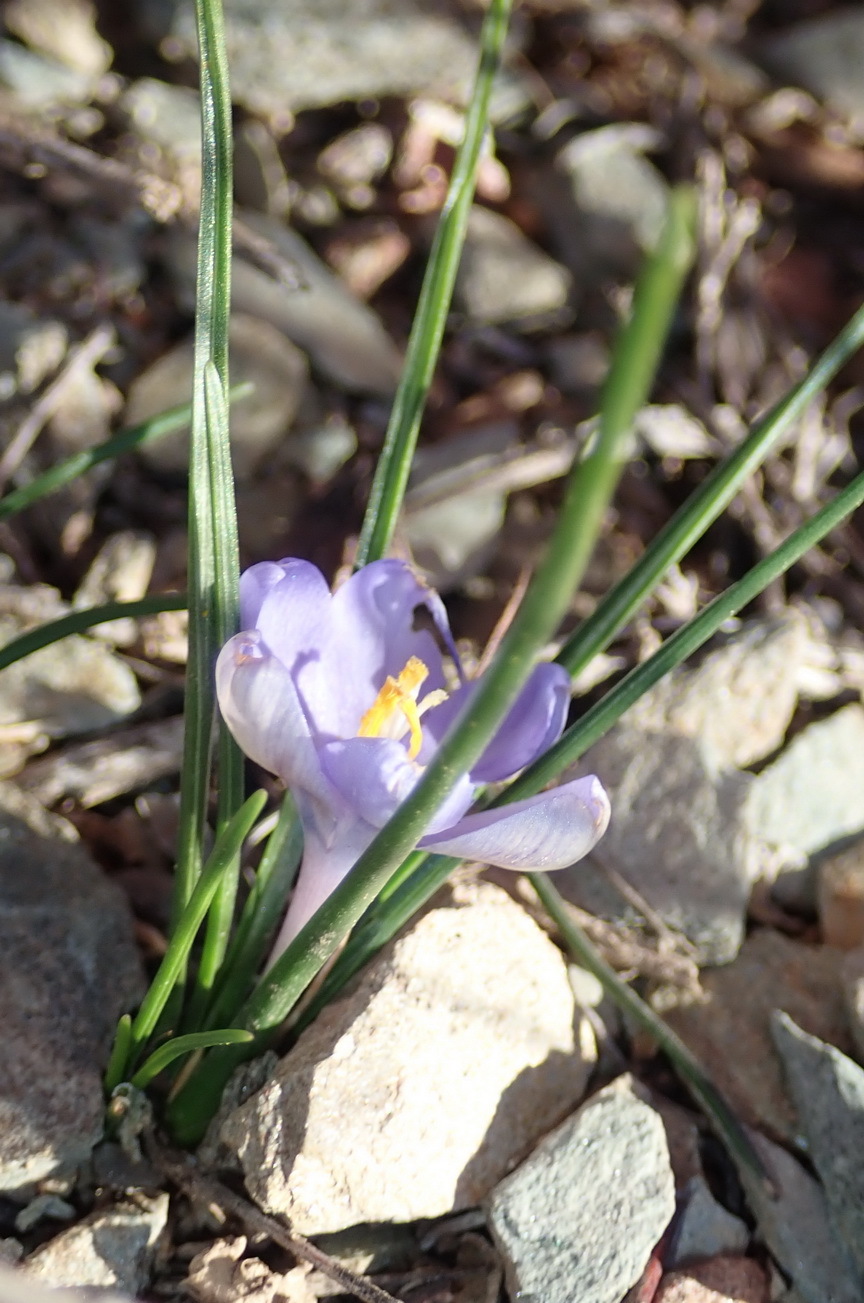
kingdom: Plantae
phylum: Tracheophyta
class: Liliopsida
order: Asparagales
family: Iridaceae
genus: Syringodea
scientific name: Syringodea longituba
